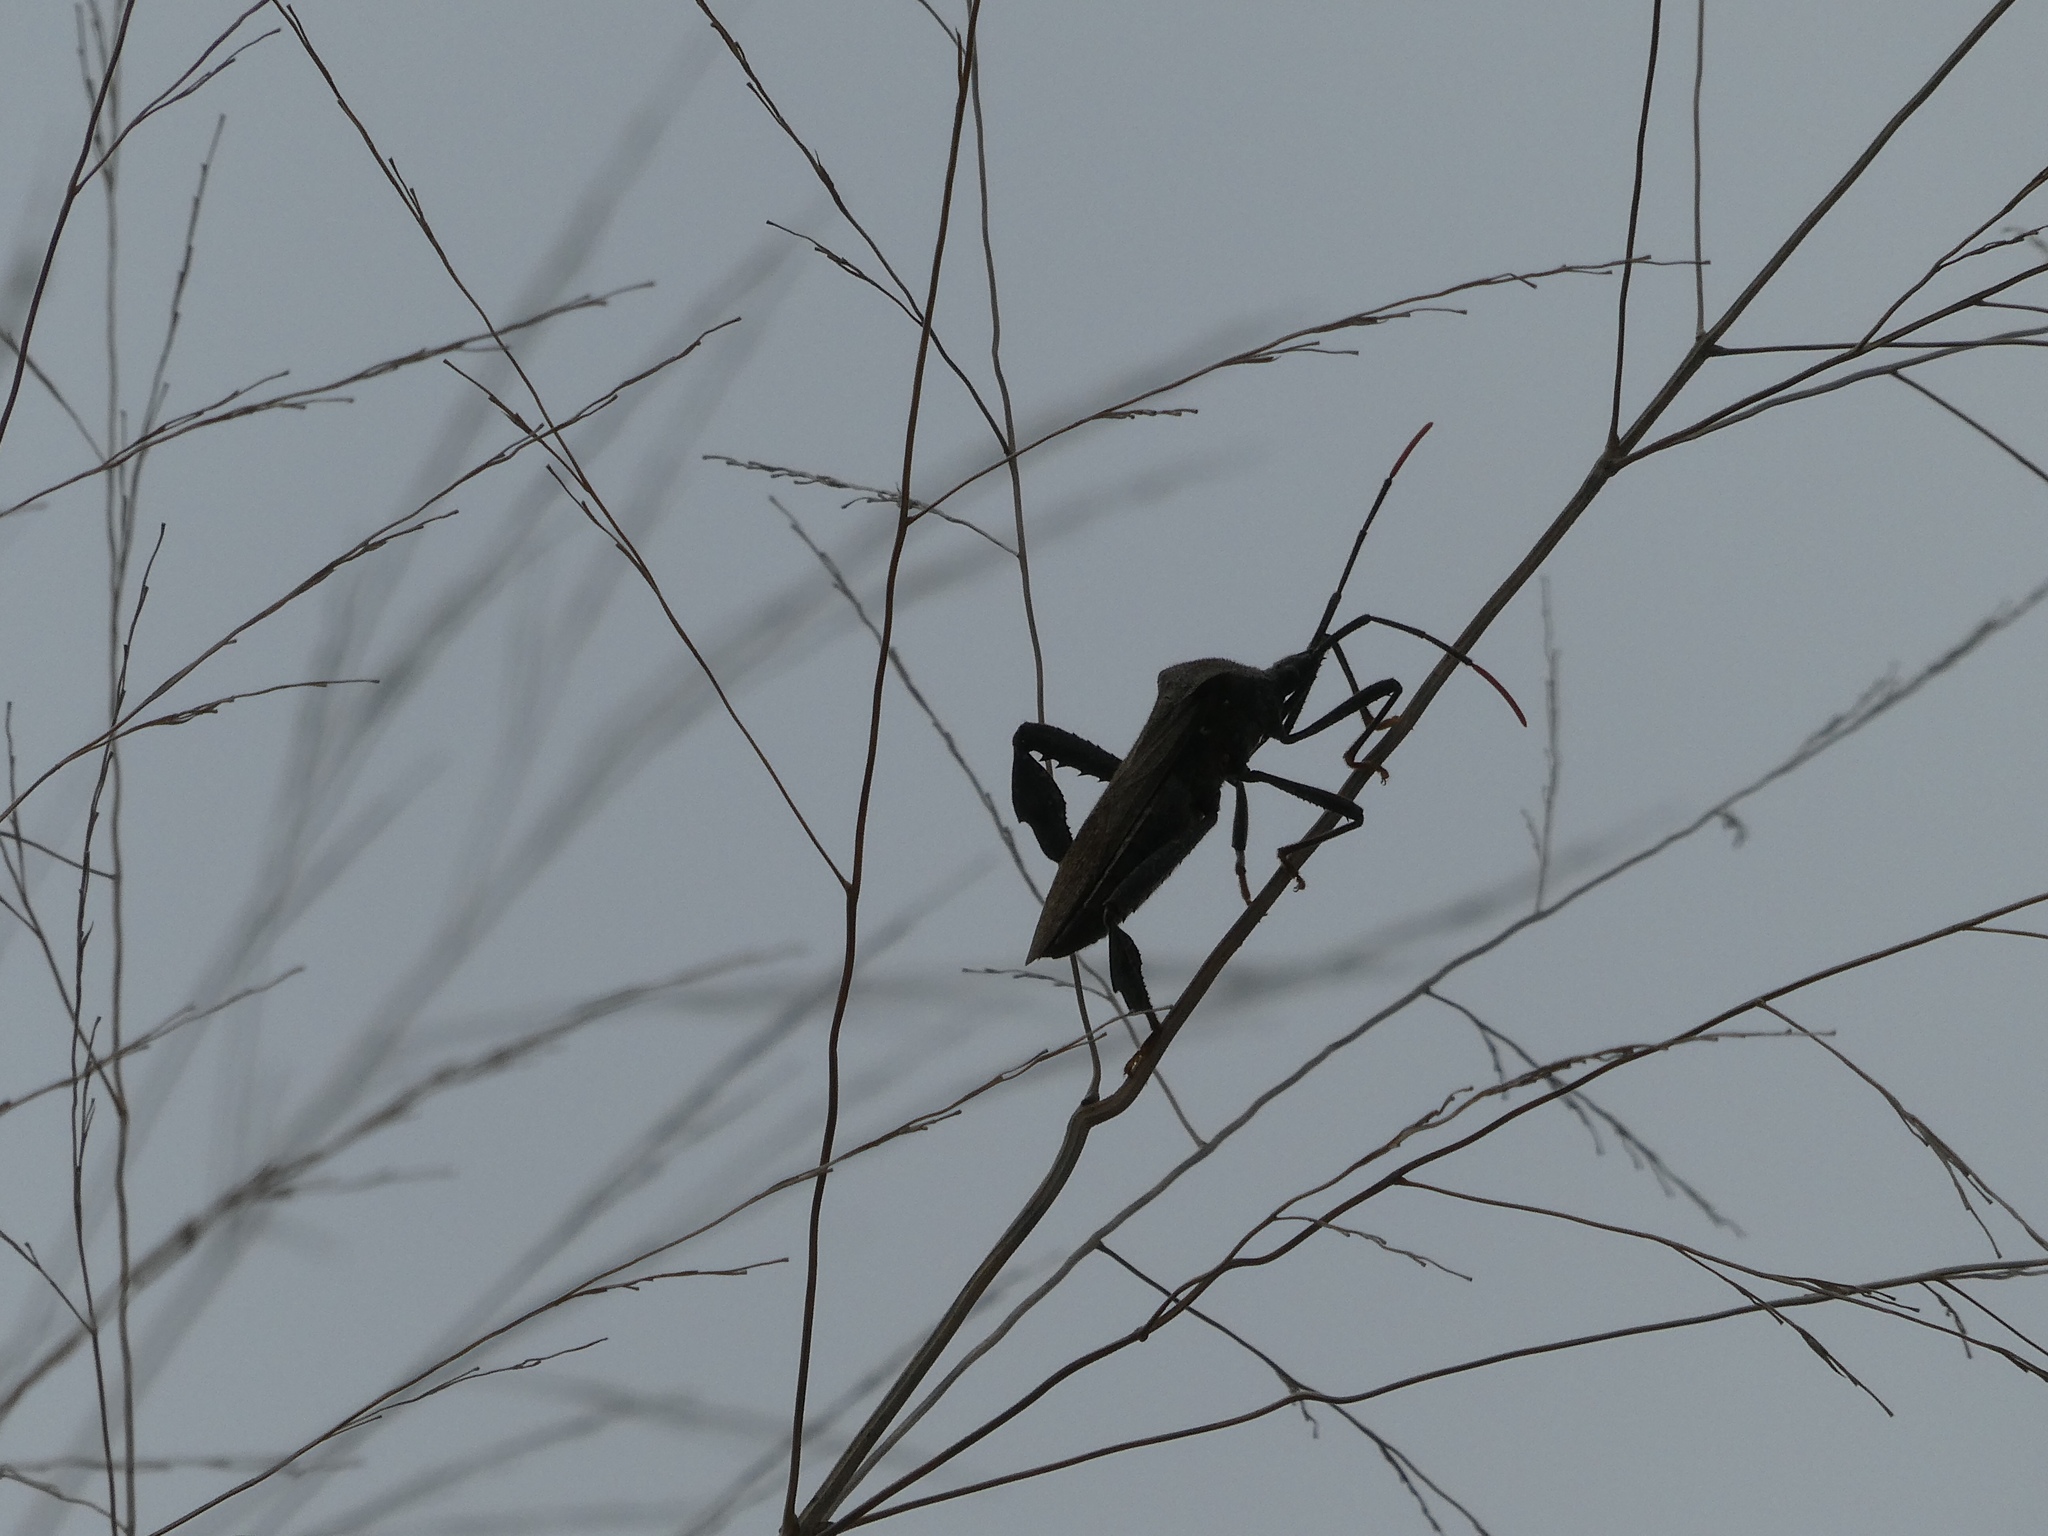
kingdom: Animalia
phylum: Arthropoda
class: Insecta
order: Hemiptera
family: Coreidae
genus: Acanthocephala
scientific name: Acanthocephala terminalis
